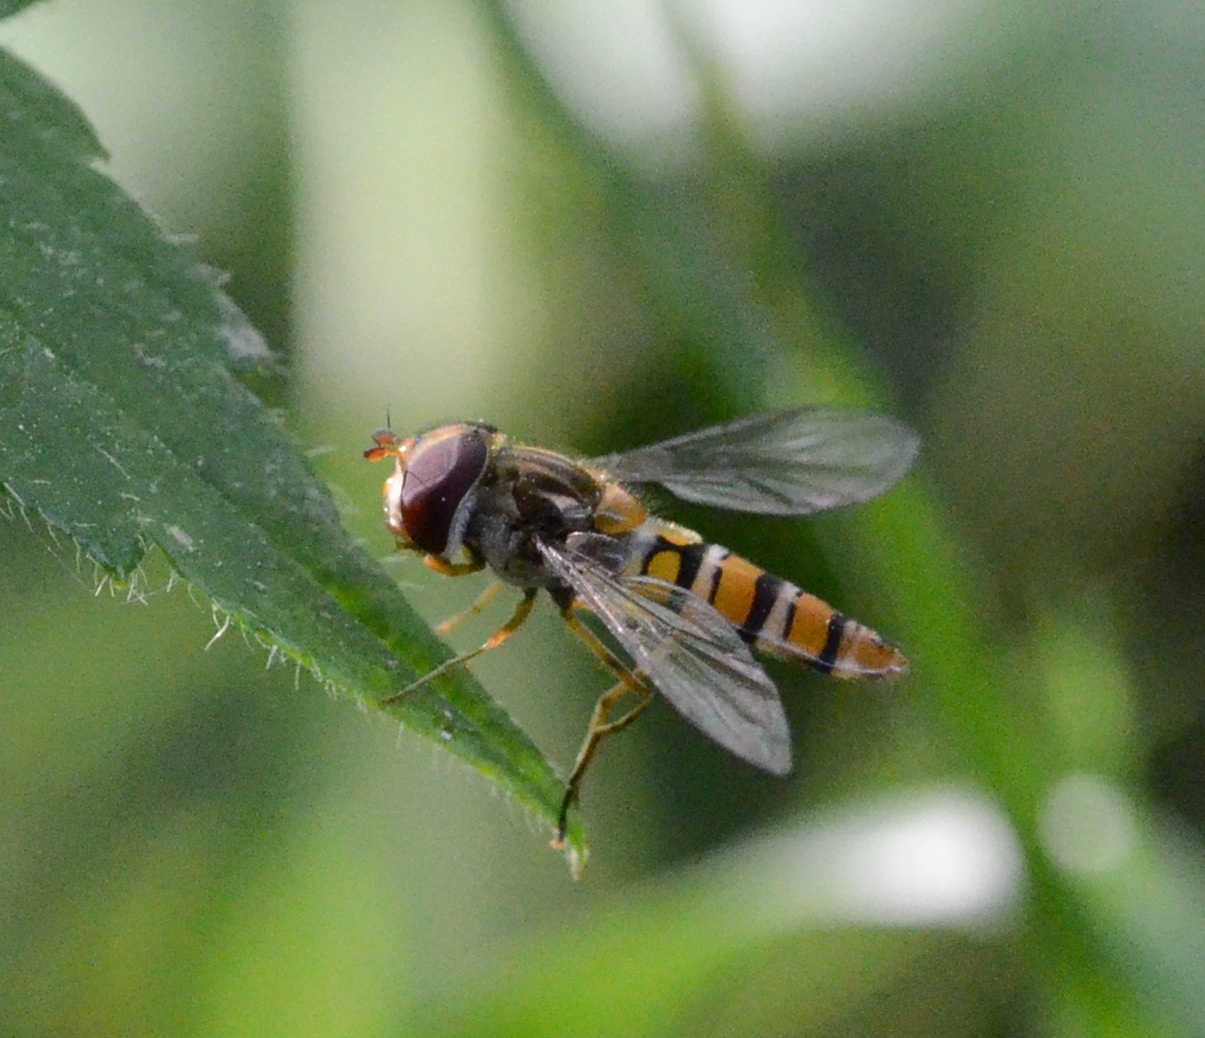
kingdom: Animalia
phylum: Arthropoda
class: Insecta
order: Diptera
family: Syrphidae
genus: Episyrphus
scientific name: Episyrphus balteatus
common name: Marmalade hoverfly
